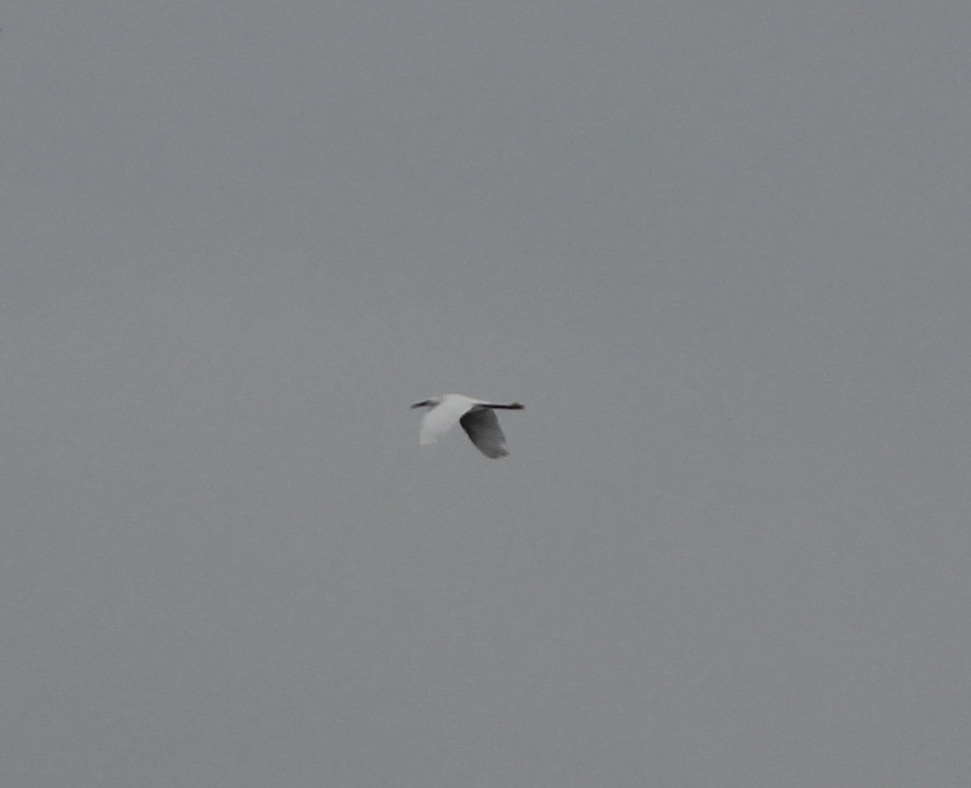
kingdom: Animalia
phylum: Chordata
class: Aves
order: Pelecaniformes
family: Ardeidae
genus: Egretta
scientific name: Egretta thula
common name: Snowy egret
